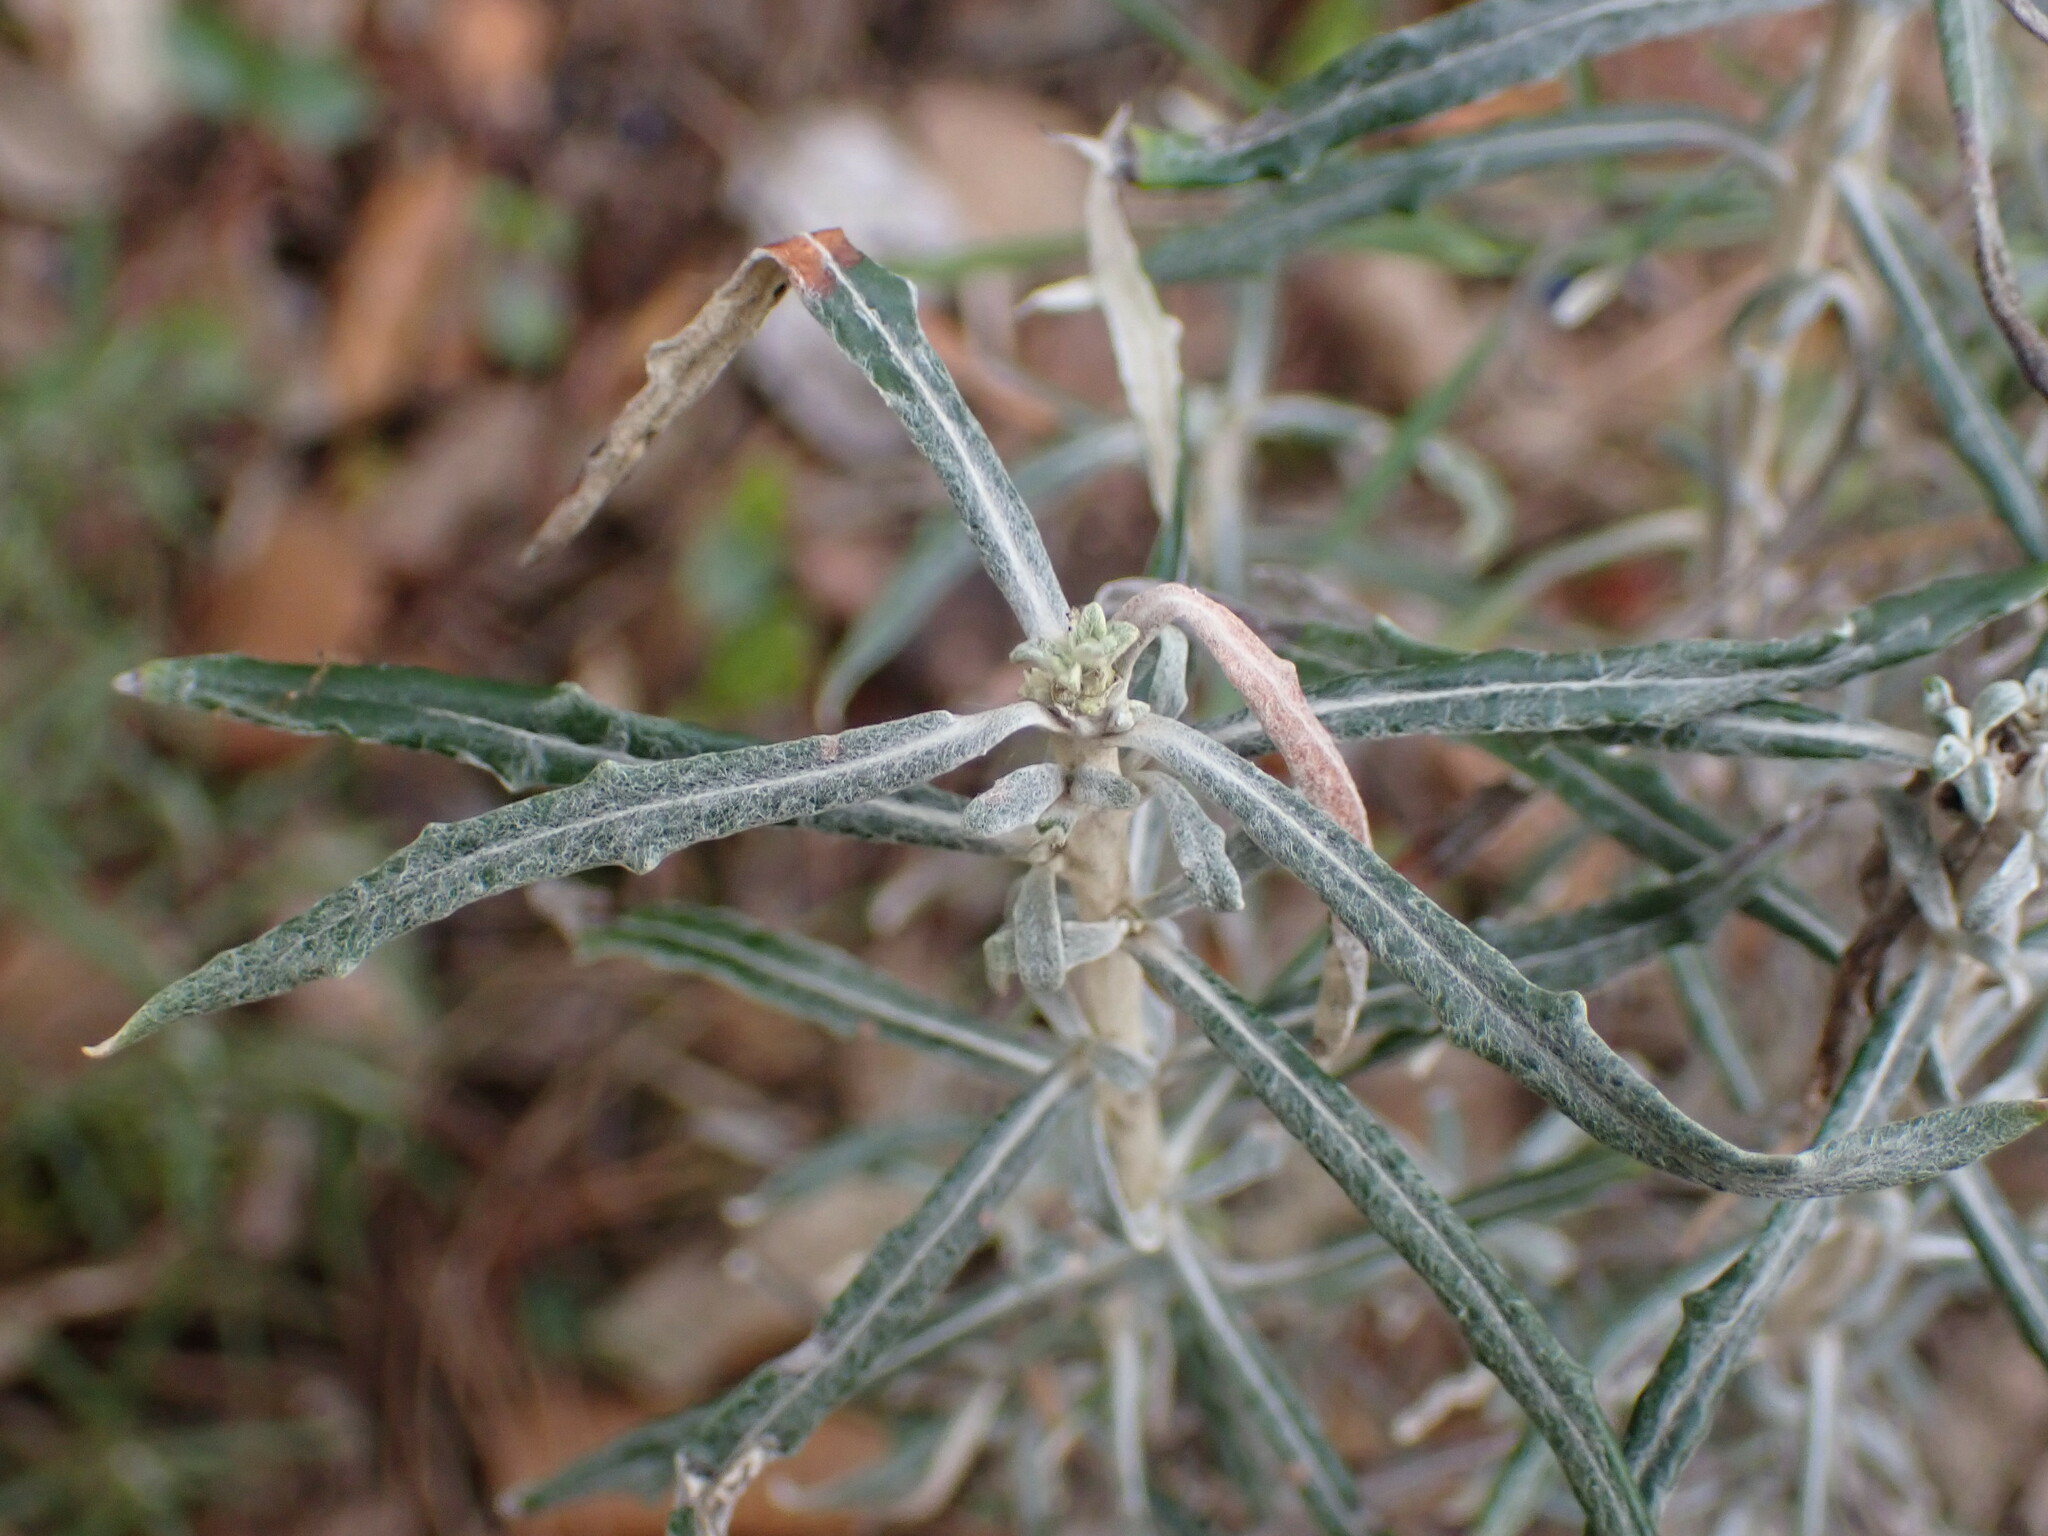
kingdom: Plantae
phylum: Tracheophyta
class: Magnoliopsida
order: Asterales
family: Asteraceae
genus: Staehelina
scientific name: Staehelina dubia
